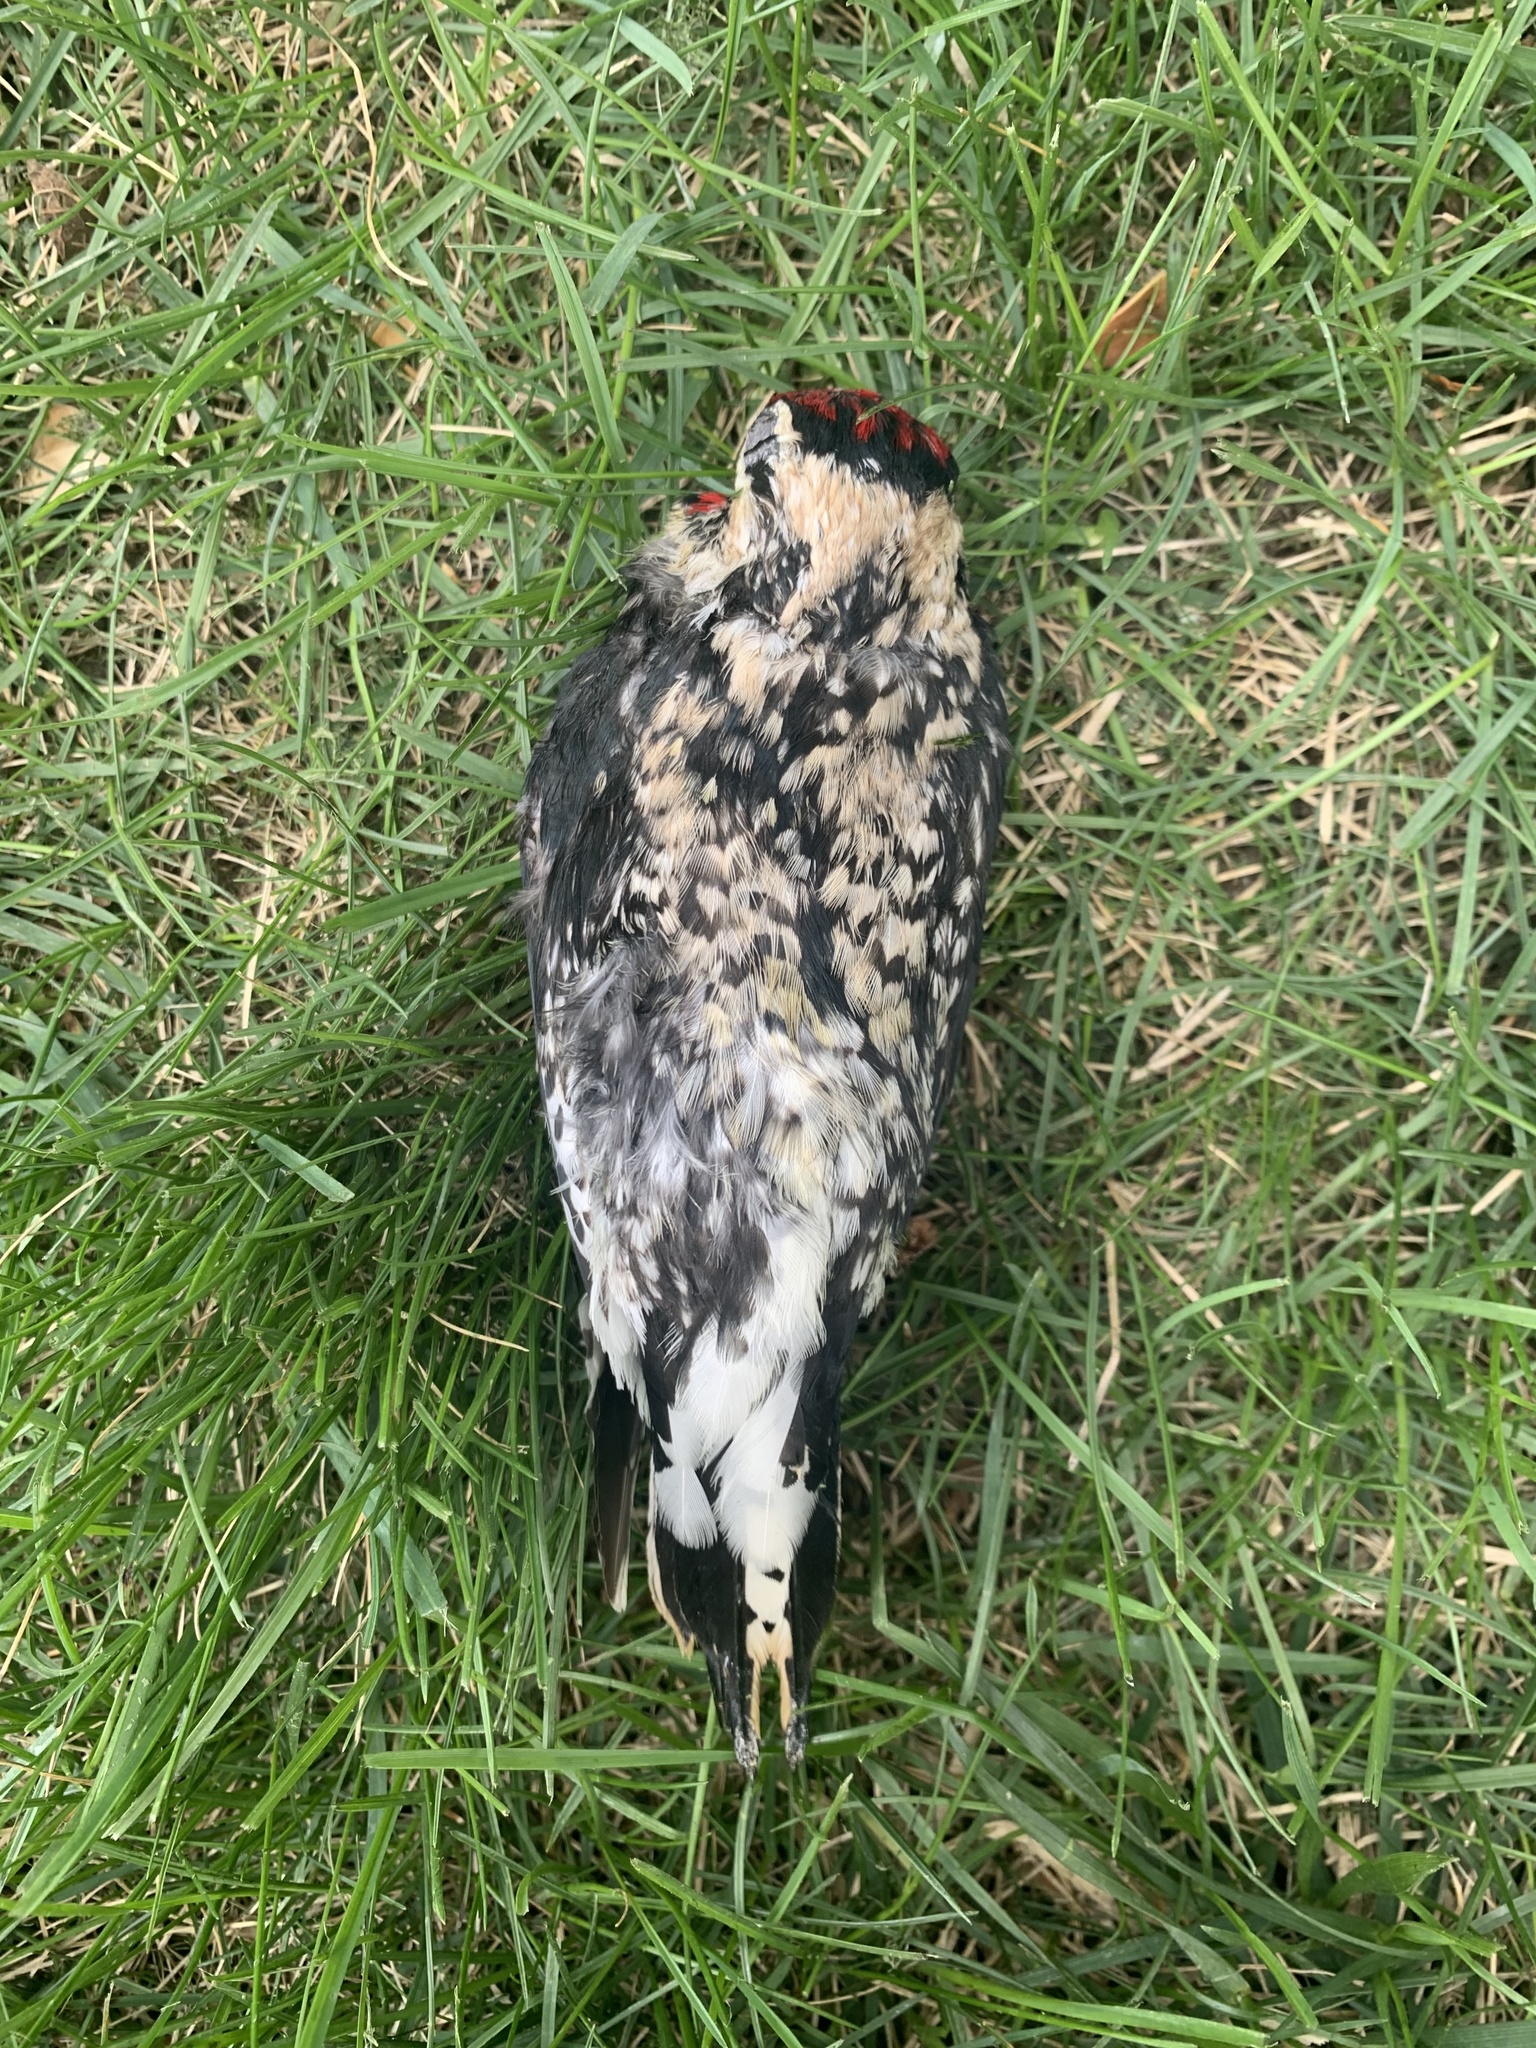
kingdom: Animalia
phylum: Chordata
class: Aves
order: Piciformes
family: Picidae
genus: Sphyrapicus
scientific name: Sphyrapicus varius
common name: Yellow-bellied sapsucker
